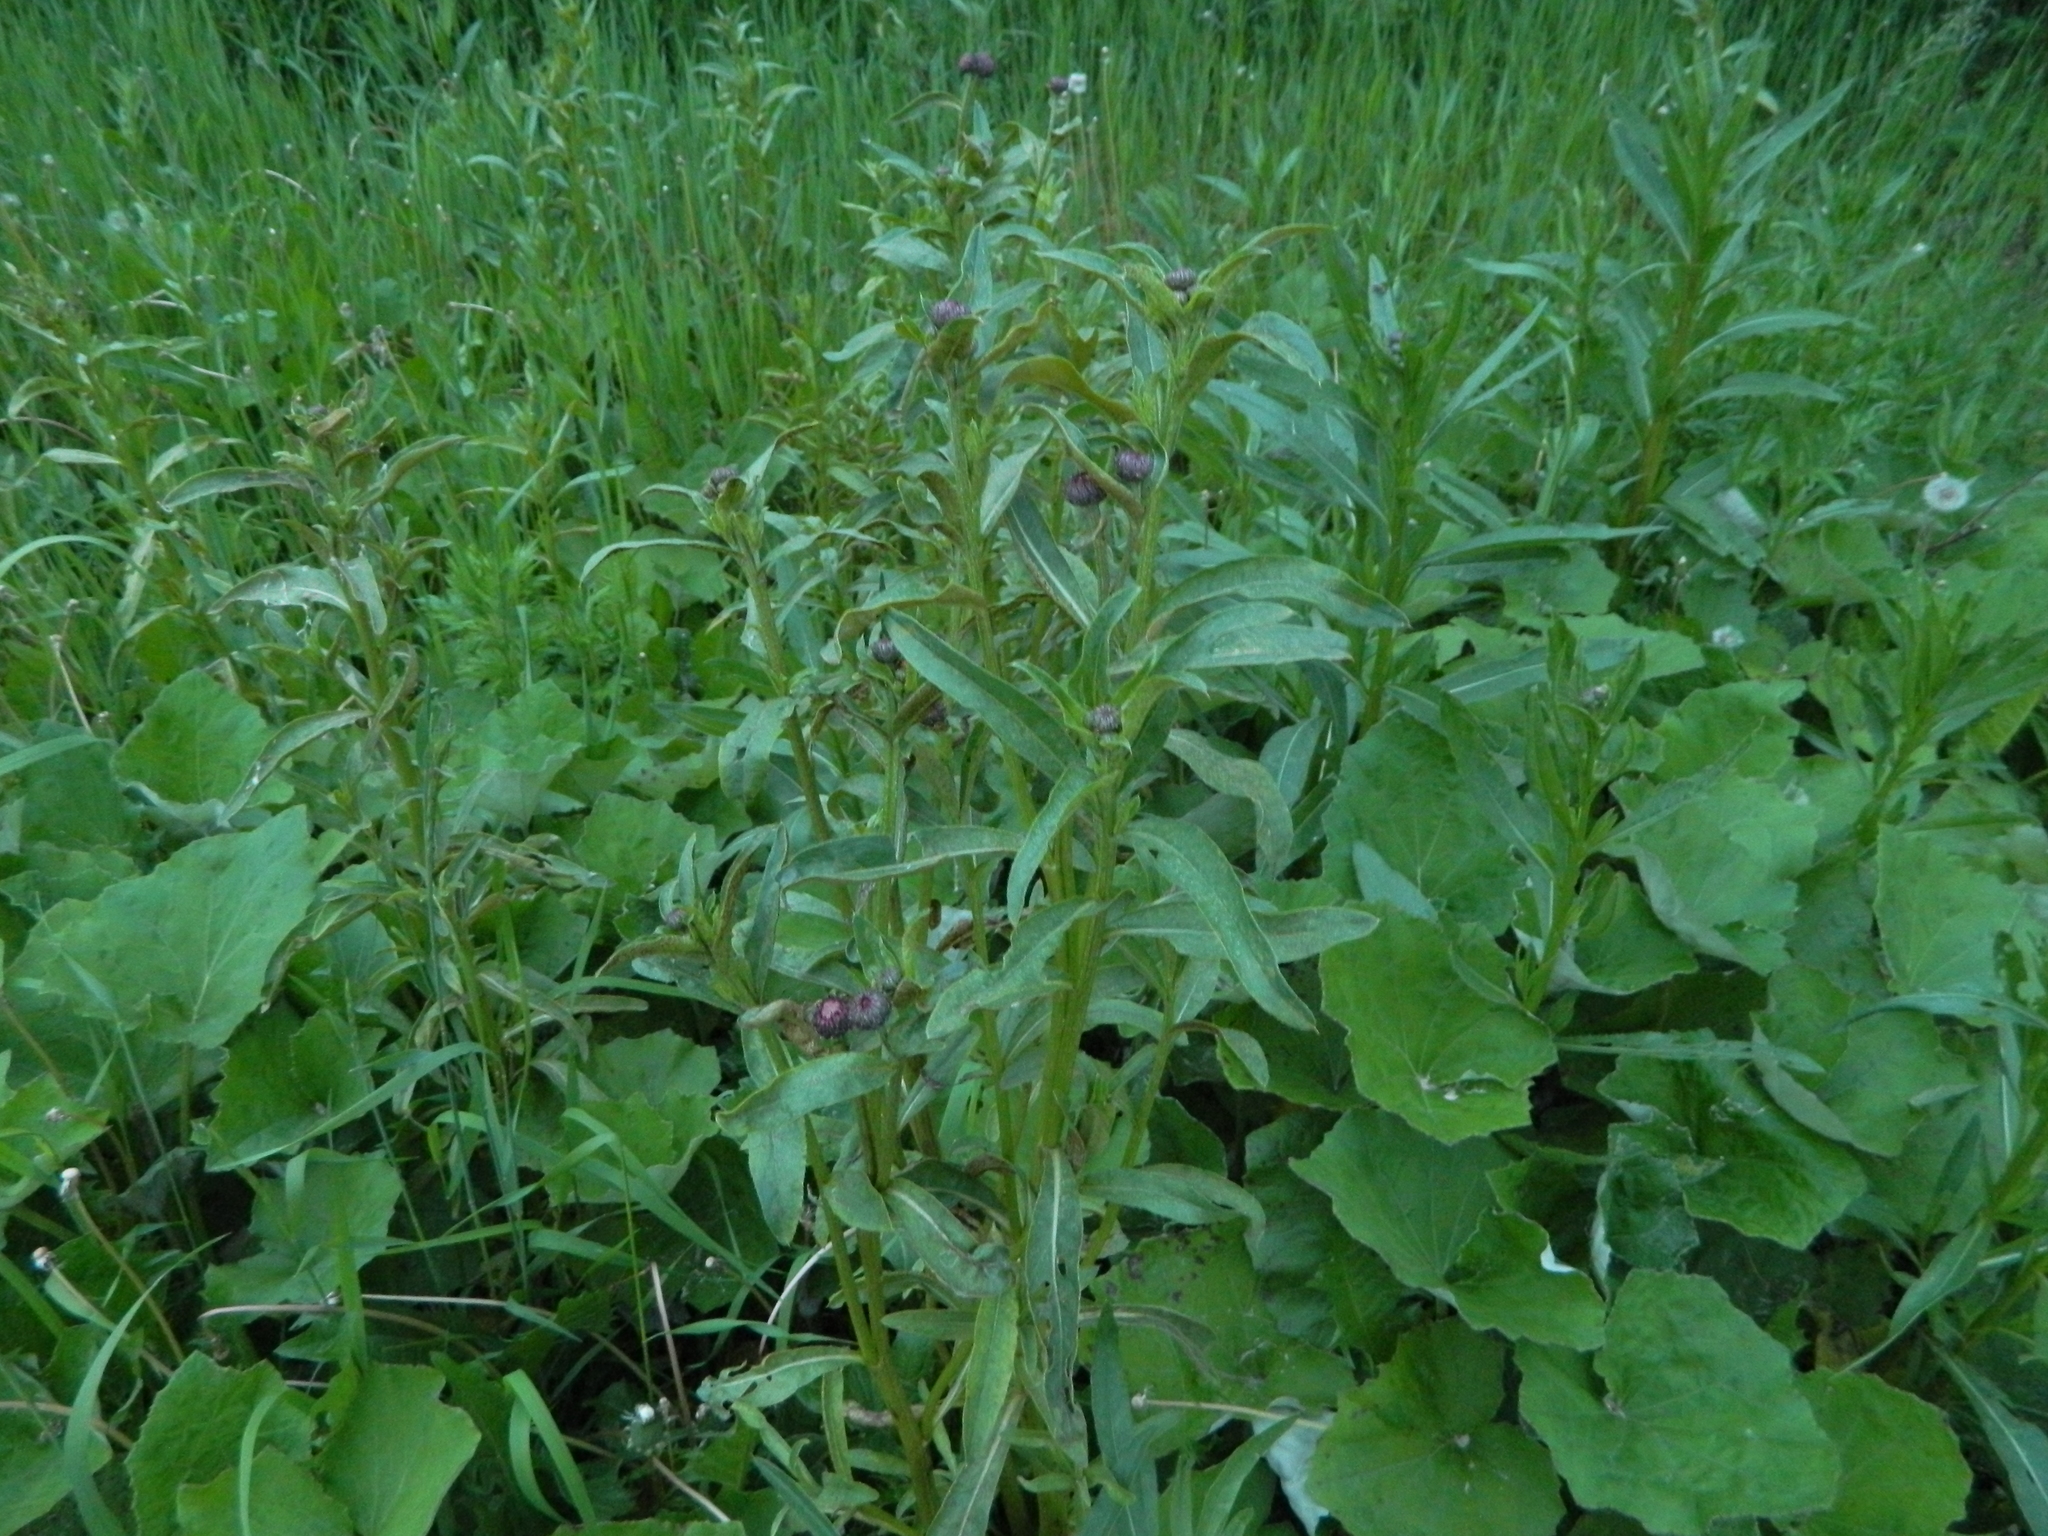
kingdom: Plantae
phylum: Tracheophyta
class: Magnoliopsida
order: Asterales
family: Asteraceae
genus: Cirsium
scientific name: Cirsium arvense
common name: Creeping thistle
